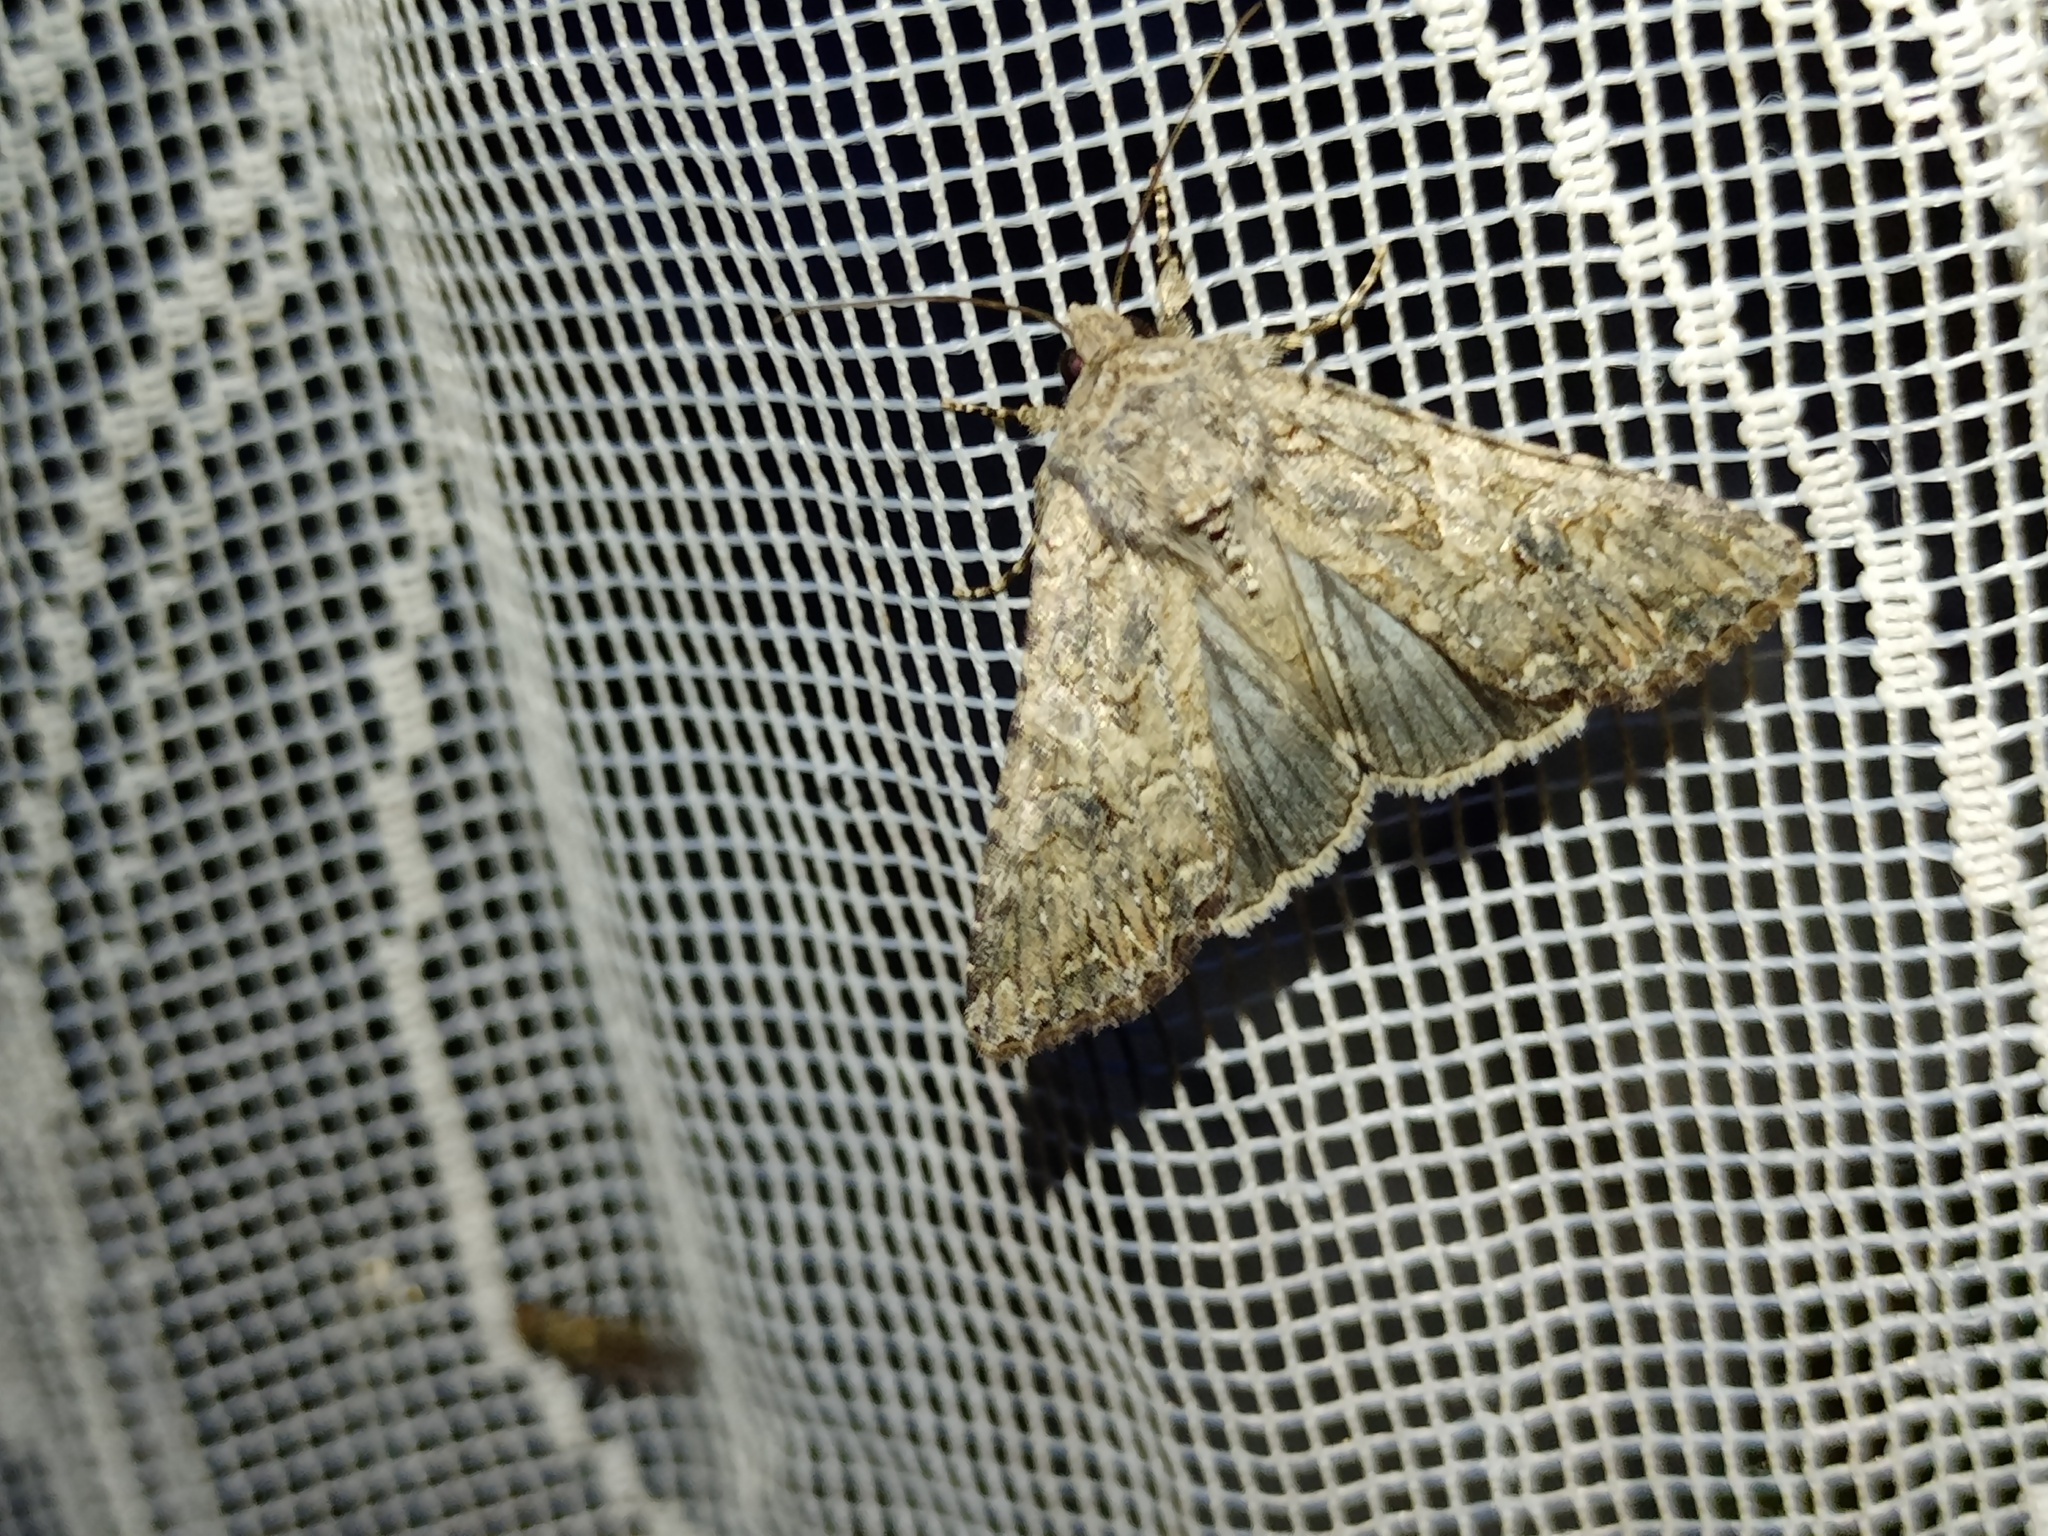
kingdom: Animalia
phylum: Arthropoda
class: Insecta
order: Lepidoptera
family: Noctuidae
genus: Anarta
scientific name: Anarta trifolii
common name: Clover cutworm moth
